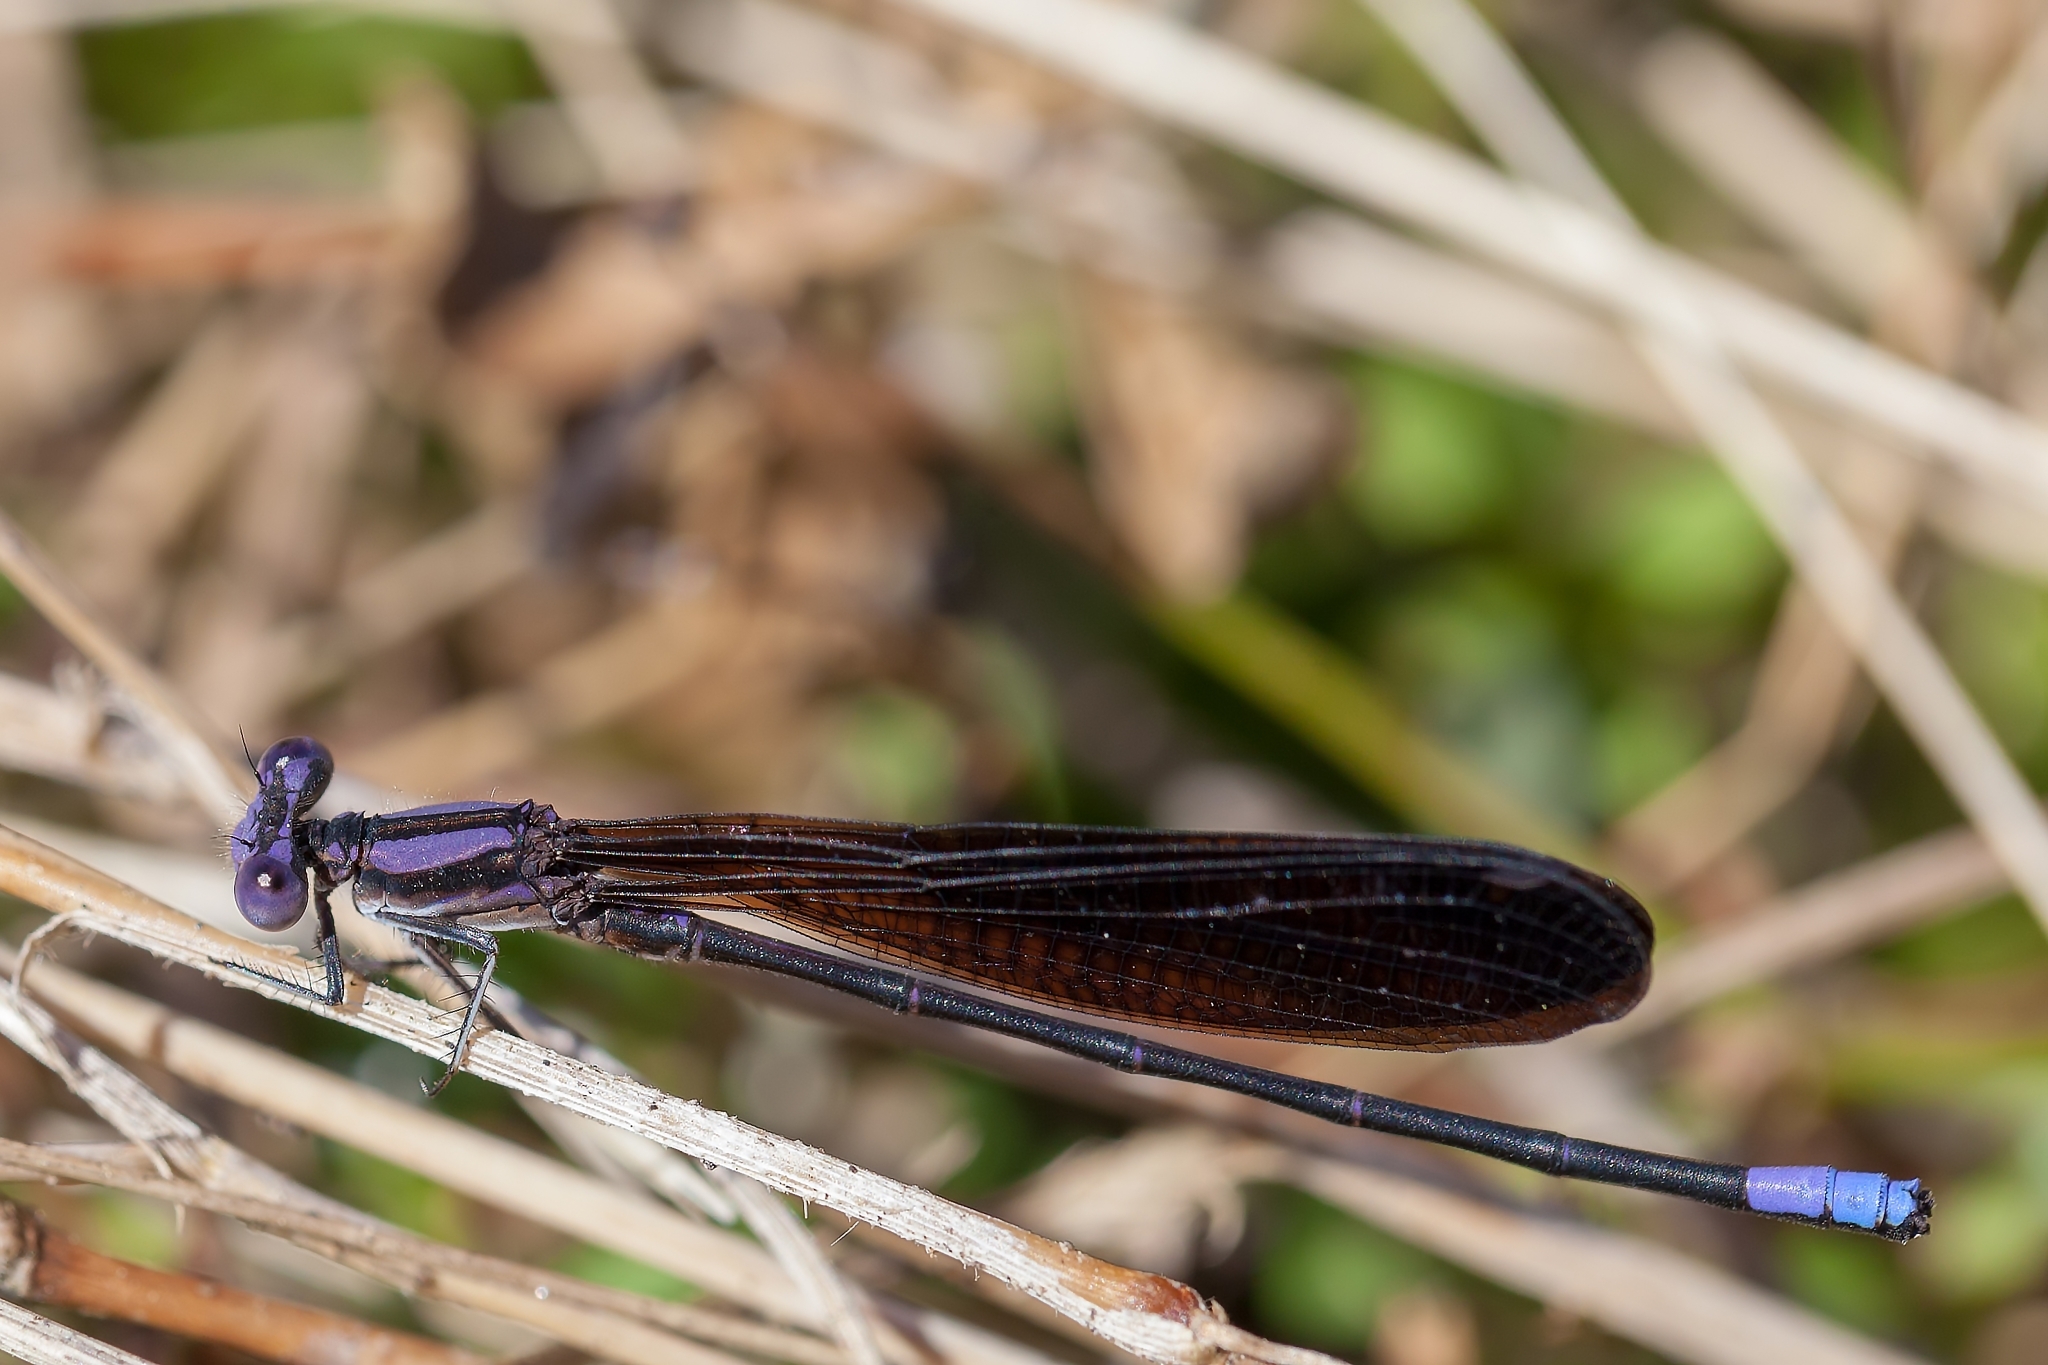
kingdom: Animalia
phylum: Arthropoda
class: Insecta
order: Odonata
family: Coenagrionidae
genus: Argia
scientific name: Argia fumipennis
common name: Variable dancer
